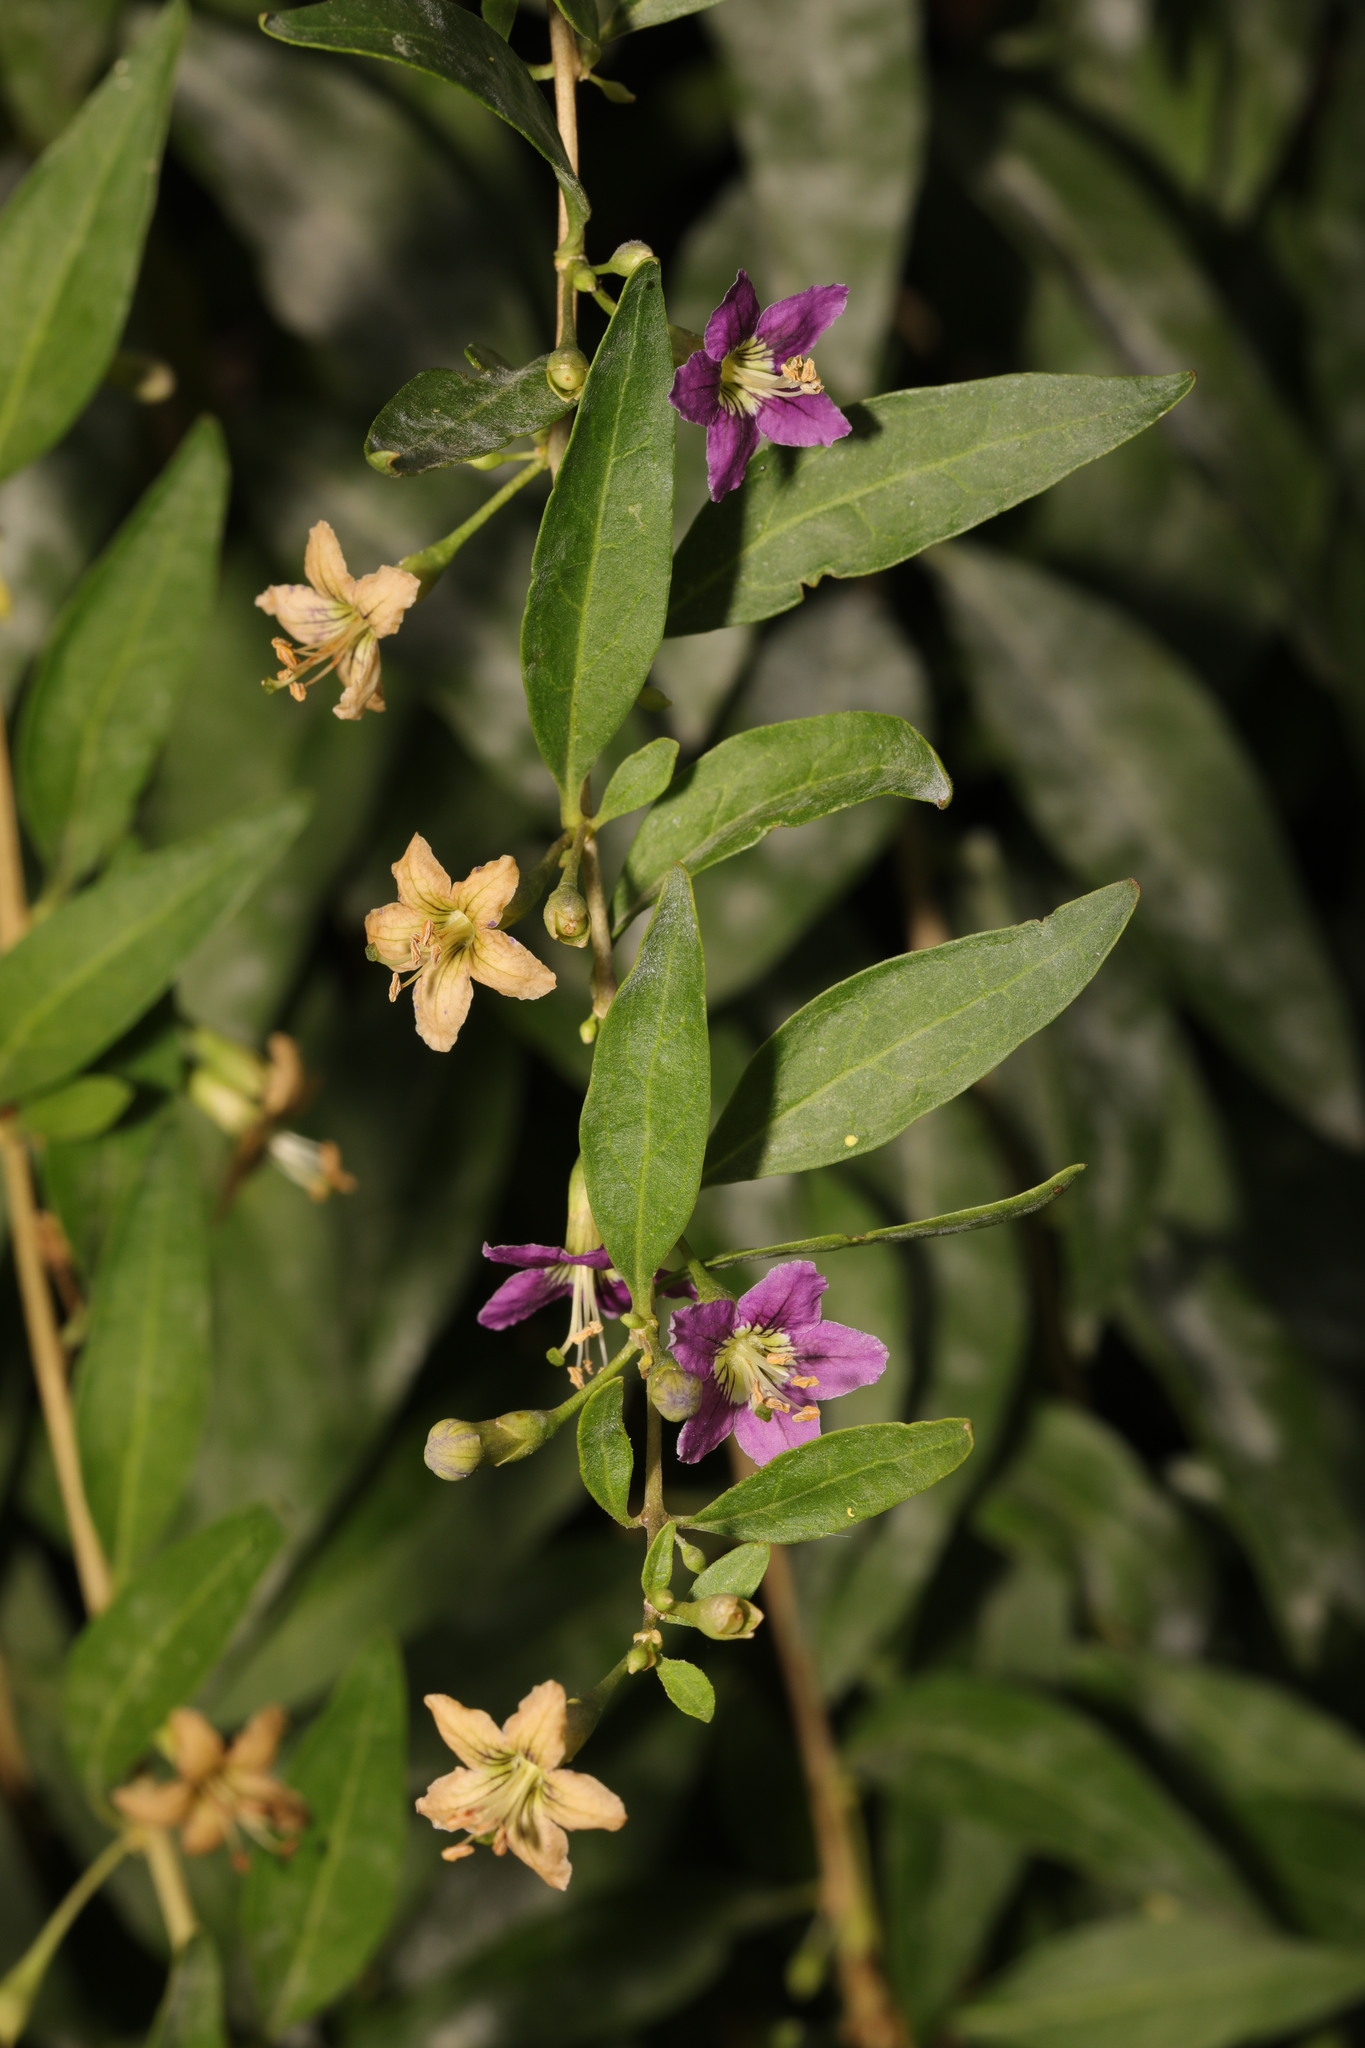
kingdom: Plantae
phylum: Tracheophyta
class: Magnoliopsida
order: Solanales
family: Solanaceae
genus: Lycium
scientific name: Lycium barbarum
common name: Duke of argyll's teaplant
